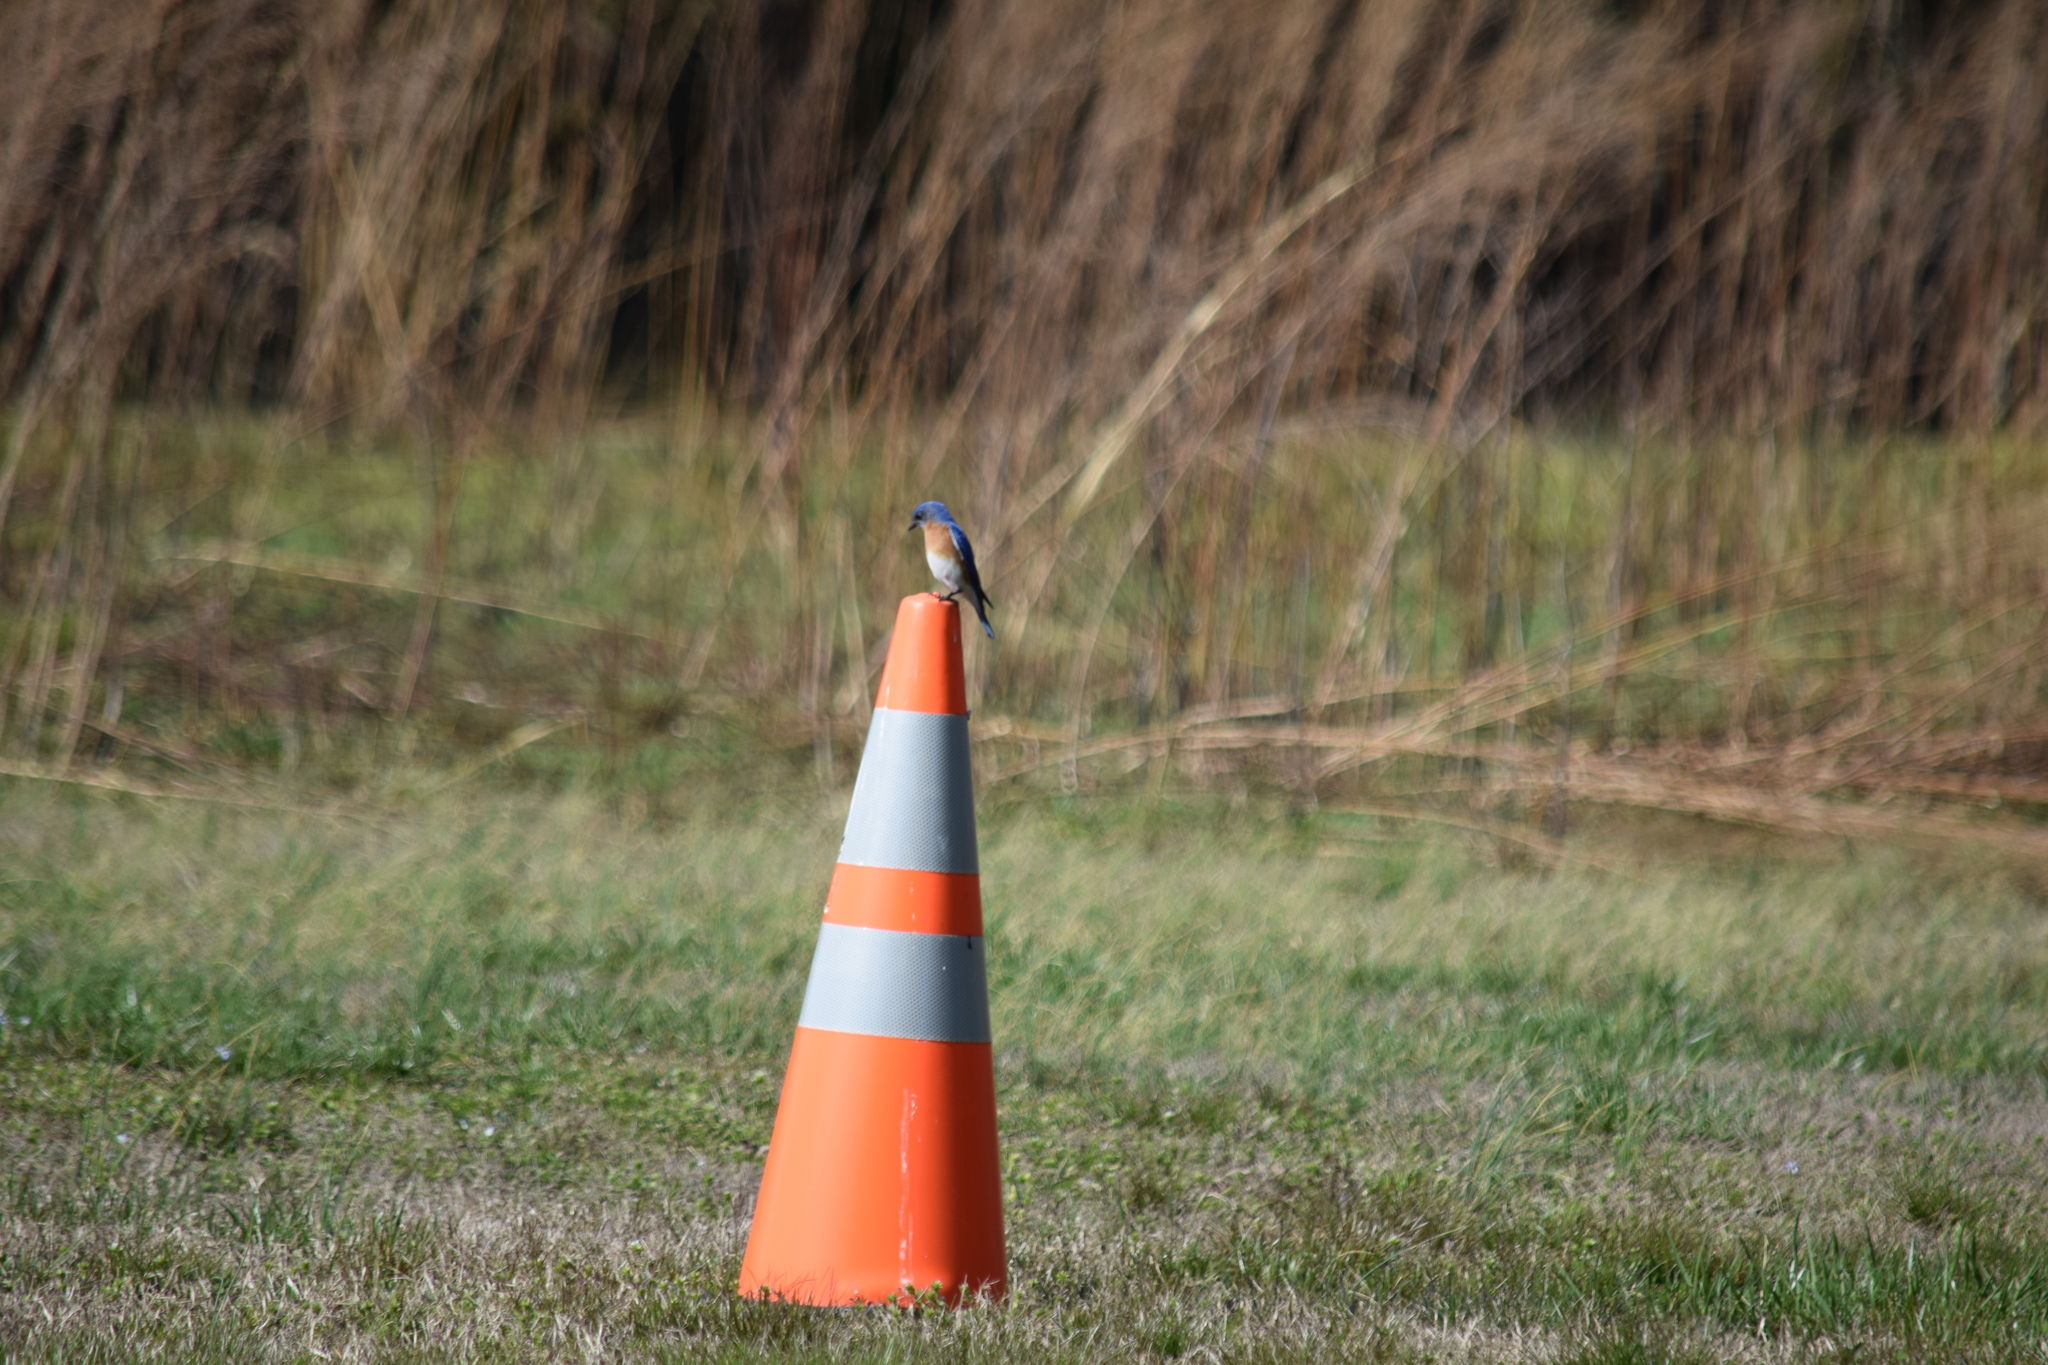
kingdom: Animalia
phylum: Chordata
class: Aves
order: Passeriformes
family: Turdidae
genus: Sialia
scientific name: Sialia sialis
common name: Eastern bluebird
